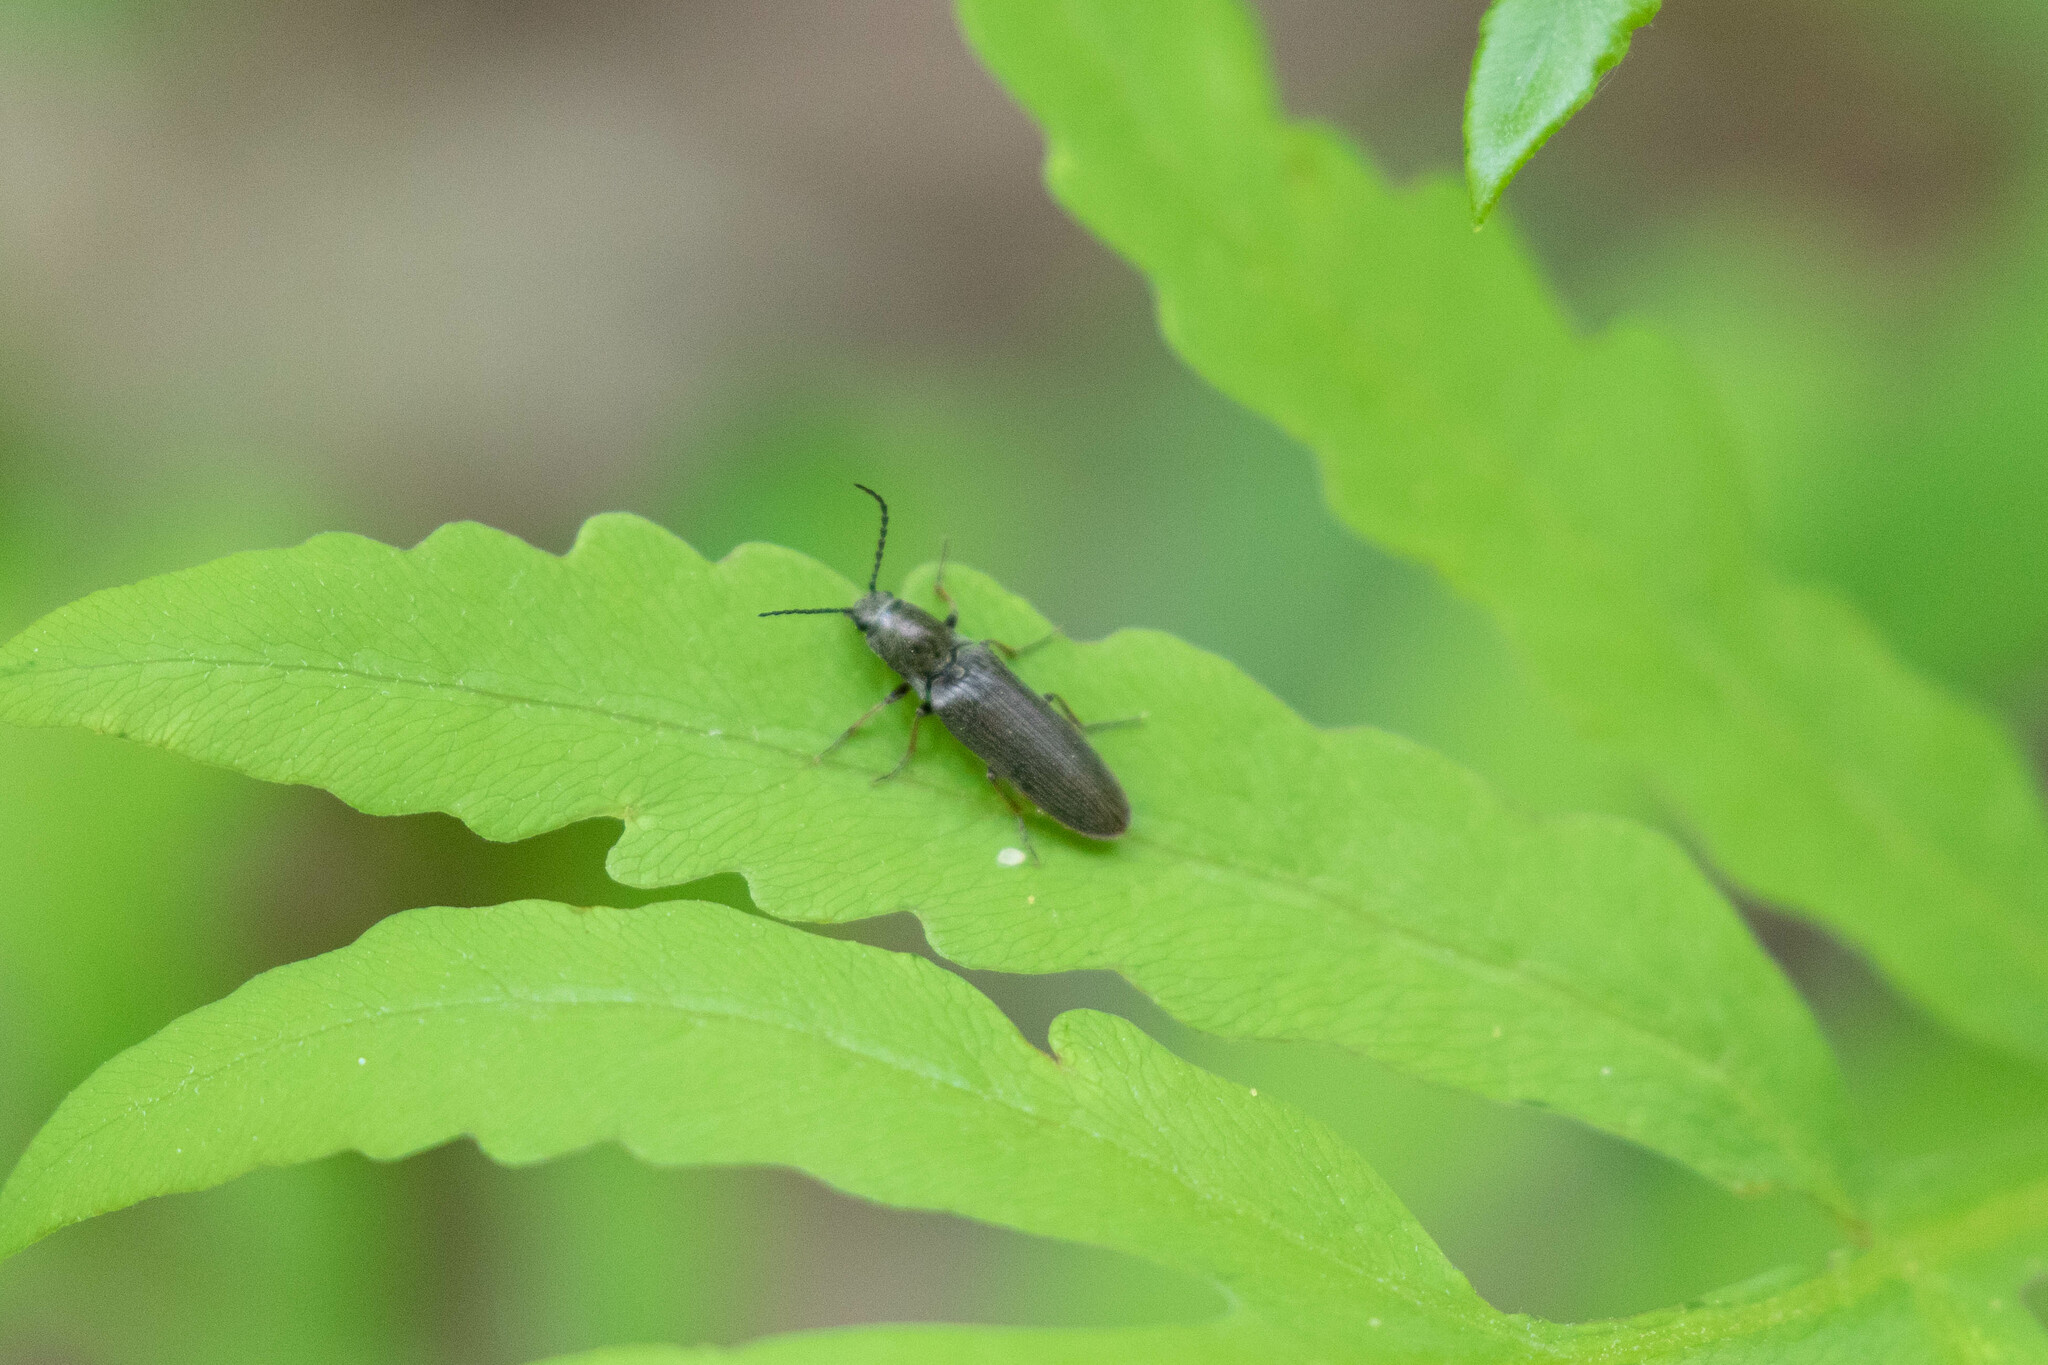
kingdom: Animalia
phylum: Arthropoda
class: Insecta
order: Coleoptera
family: Elateridae
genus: Sylvanelater
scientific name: Sylvanelater cylindriformis
